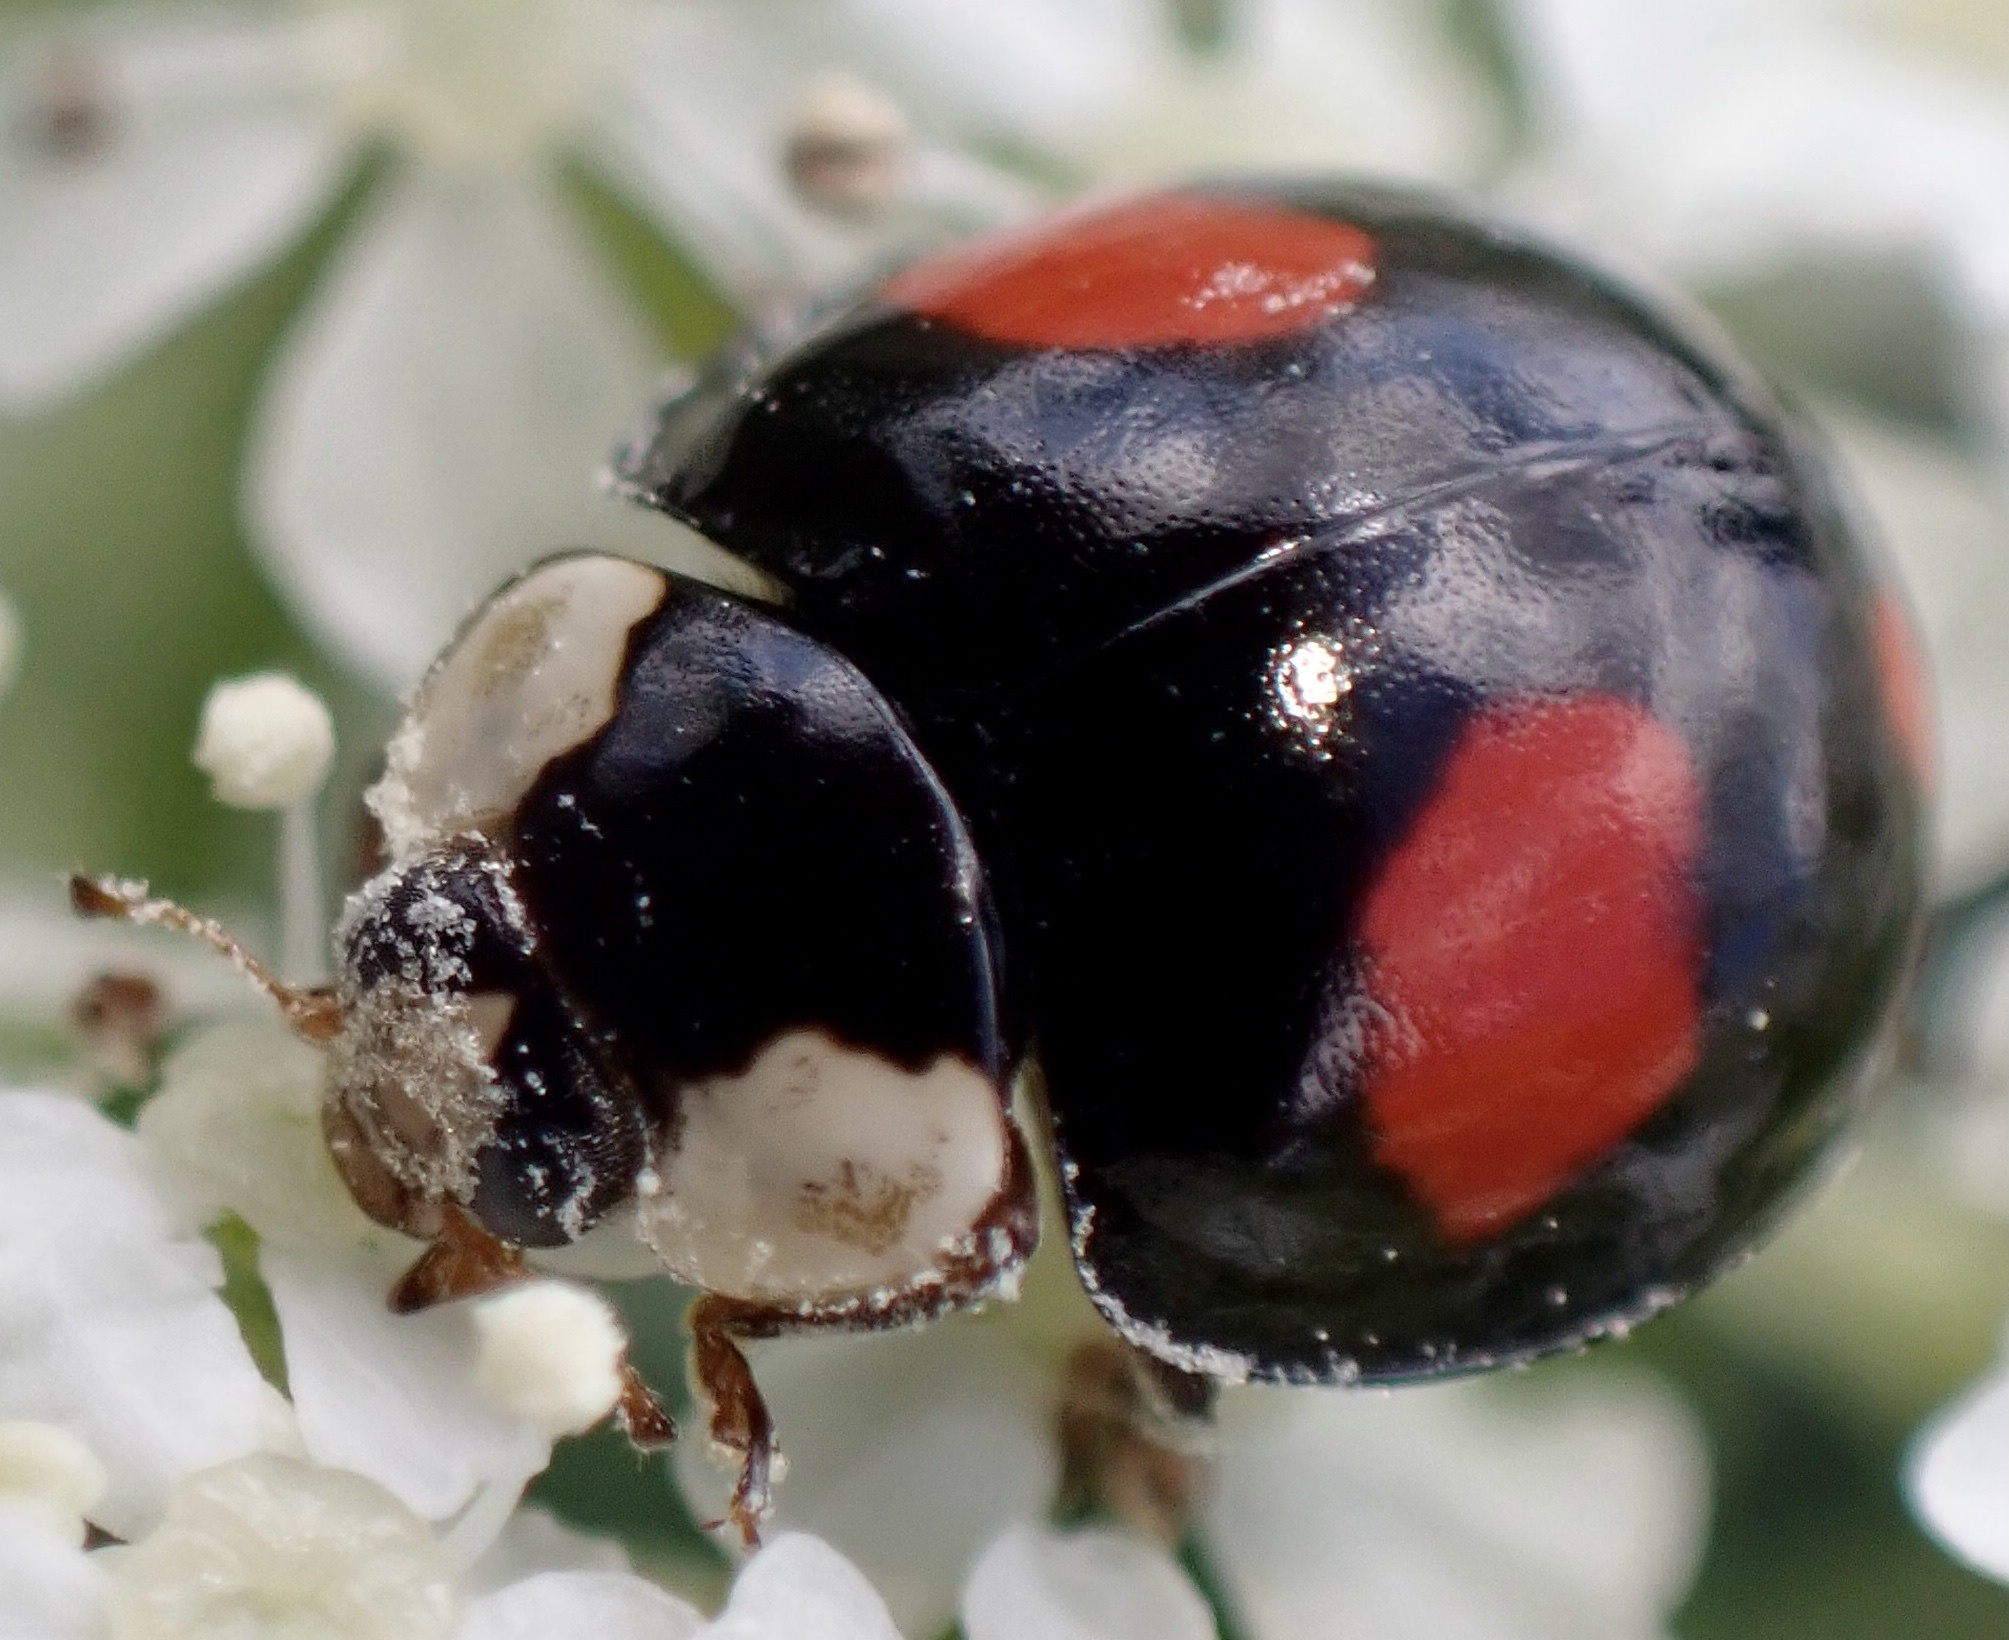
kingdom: Animalia
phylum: Arthropoda
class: Insecta
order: Coleoptera
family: Coccinellidae
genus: Harmonia
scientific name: Harmonia axyridis
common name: Harlequin ladybird
